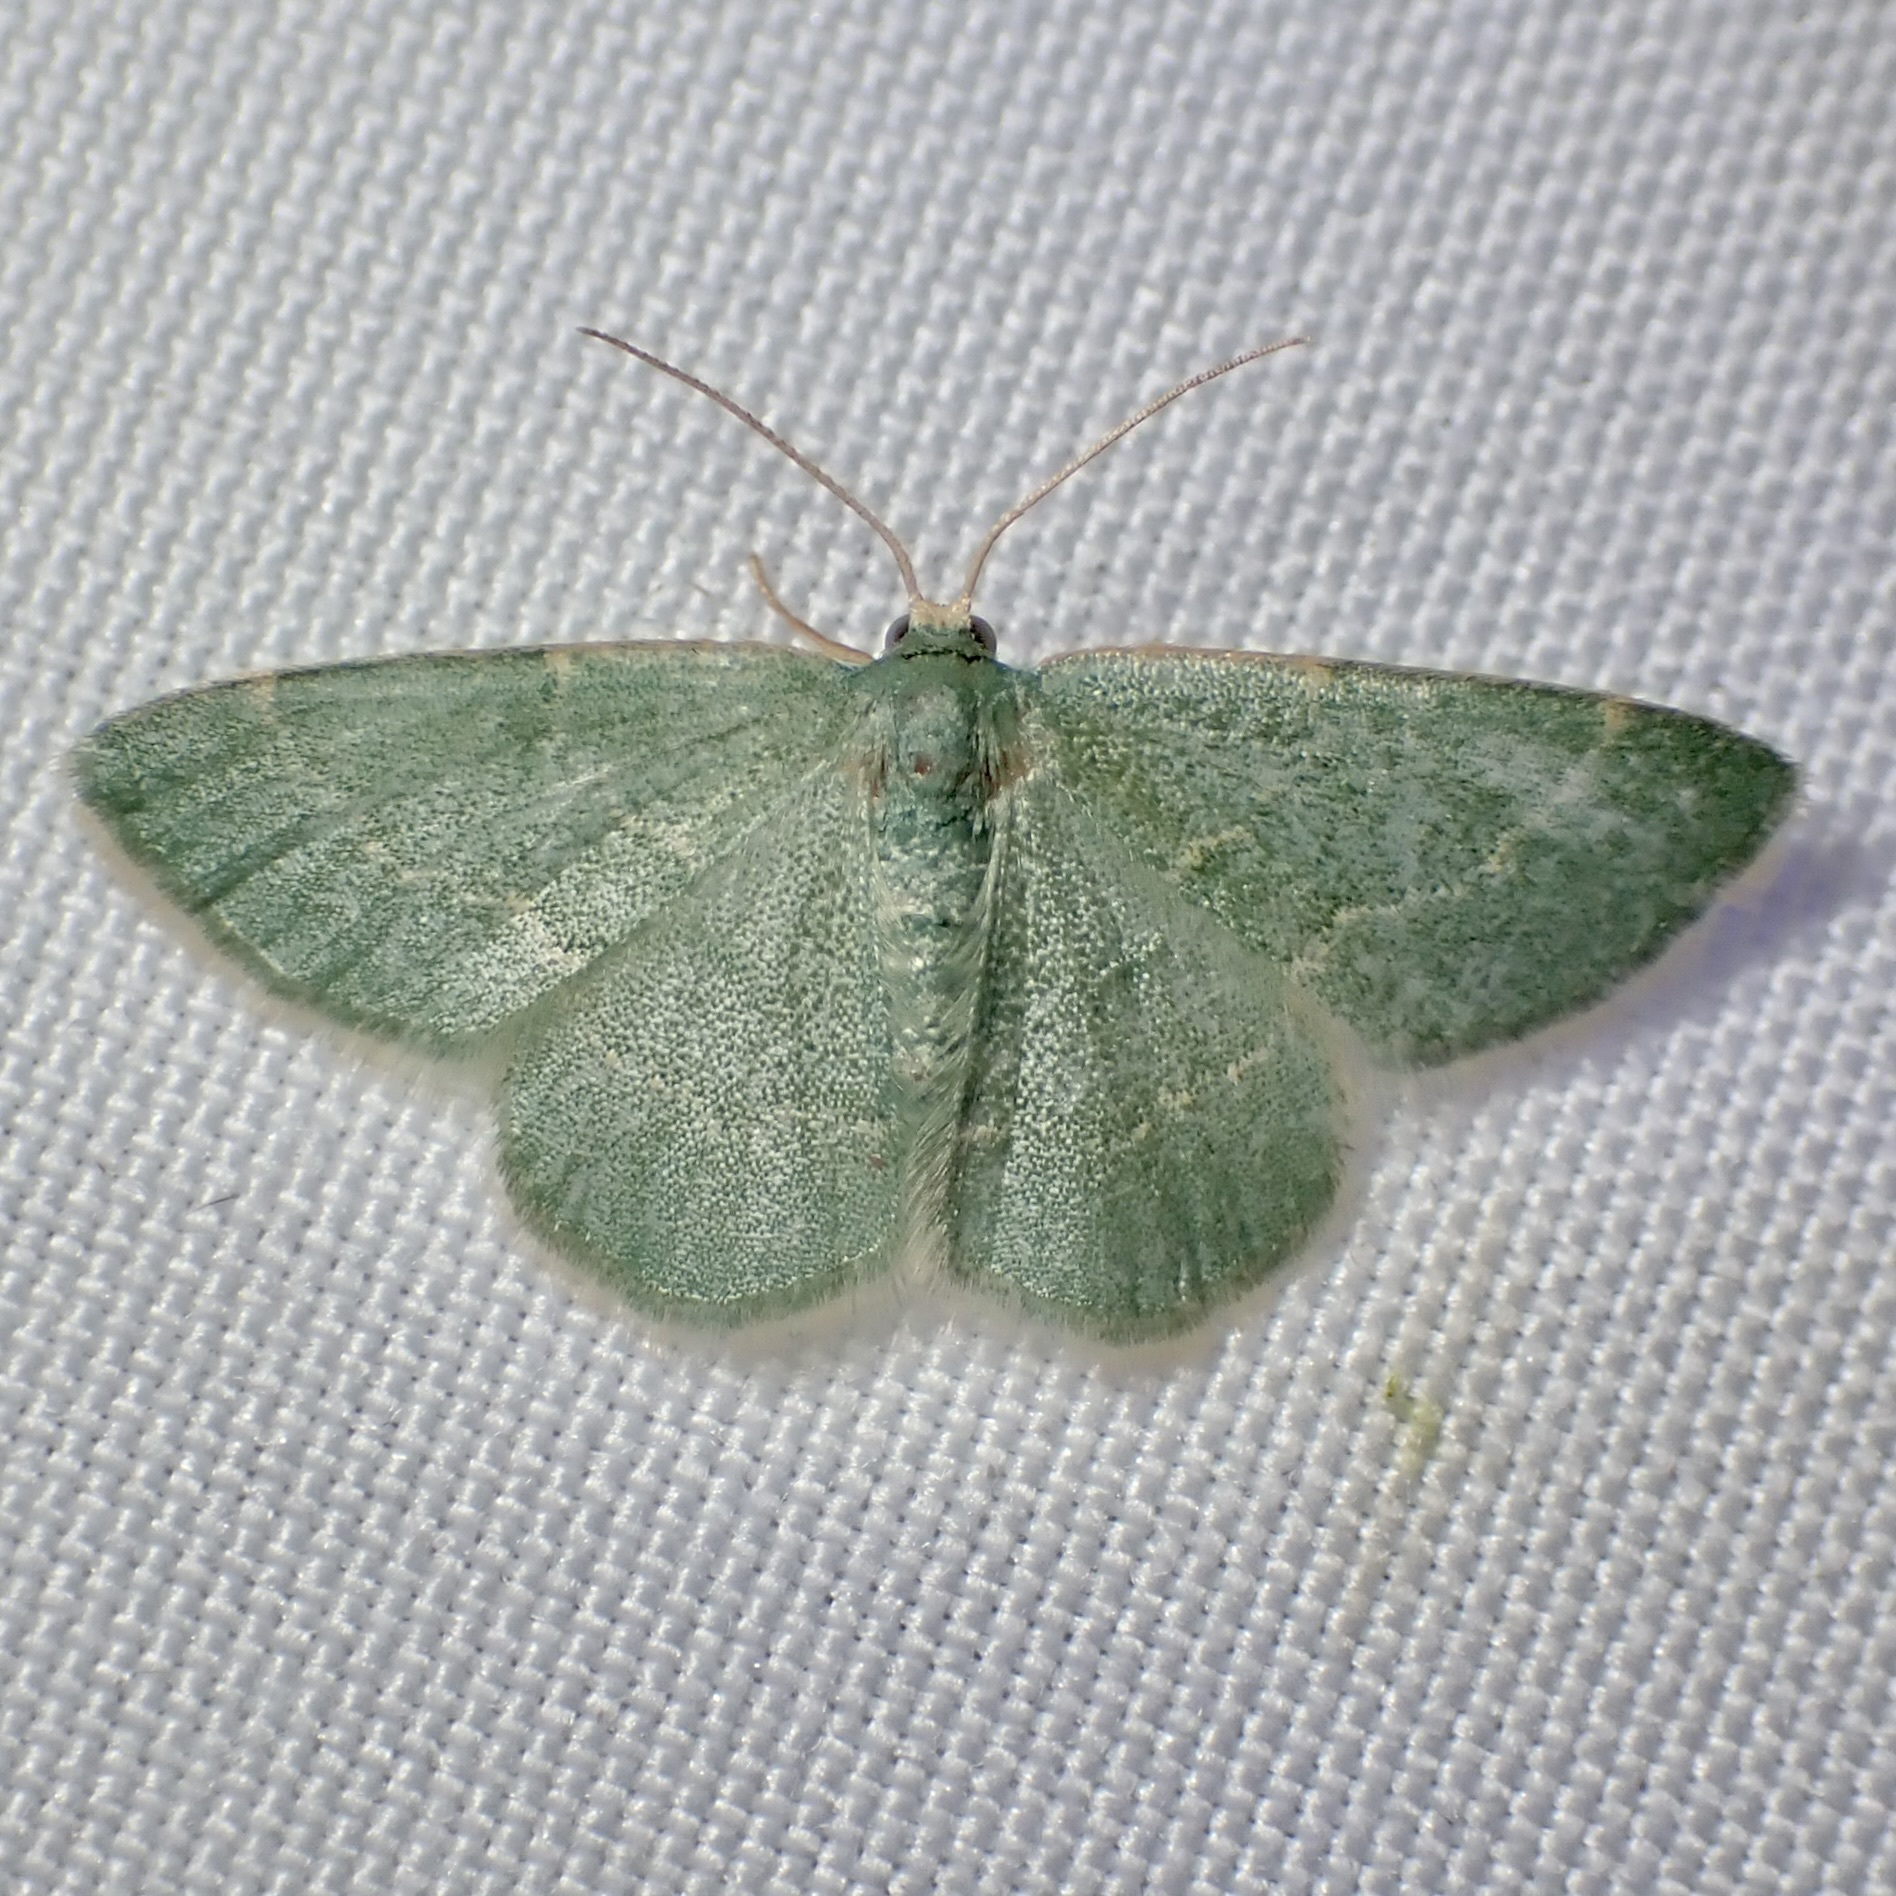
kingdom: Animalia
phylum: Arthropoda
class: Insecta
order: Lepidoptera
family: Geometridae
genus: Chlorochlamys
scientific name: Chlorochlamys phyllinaria
